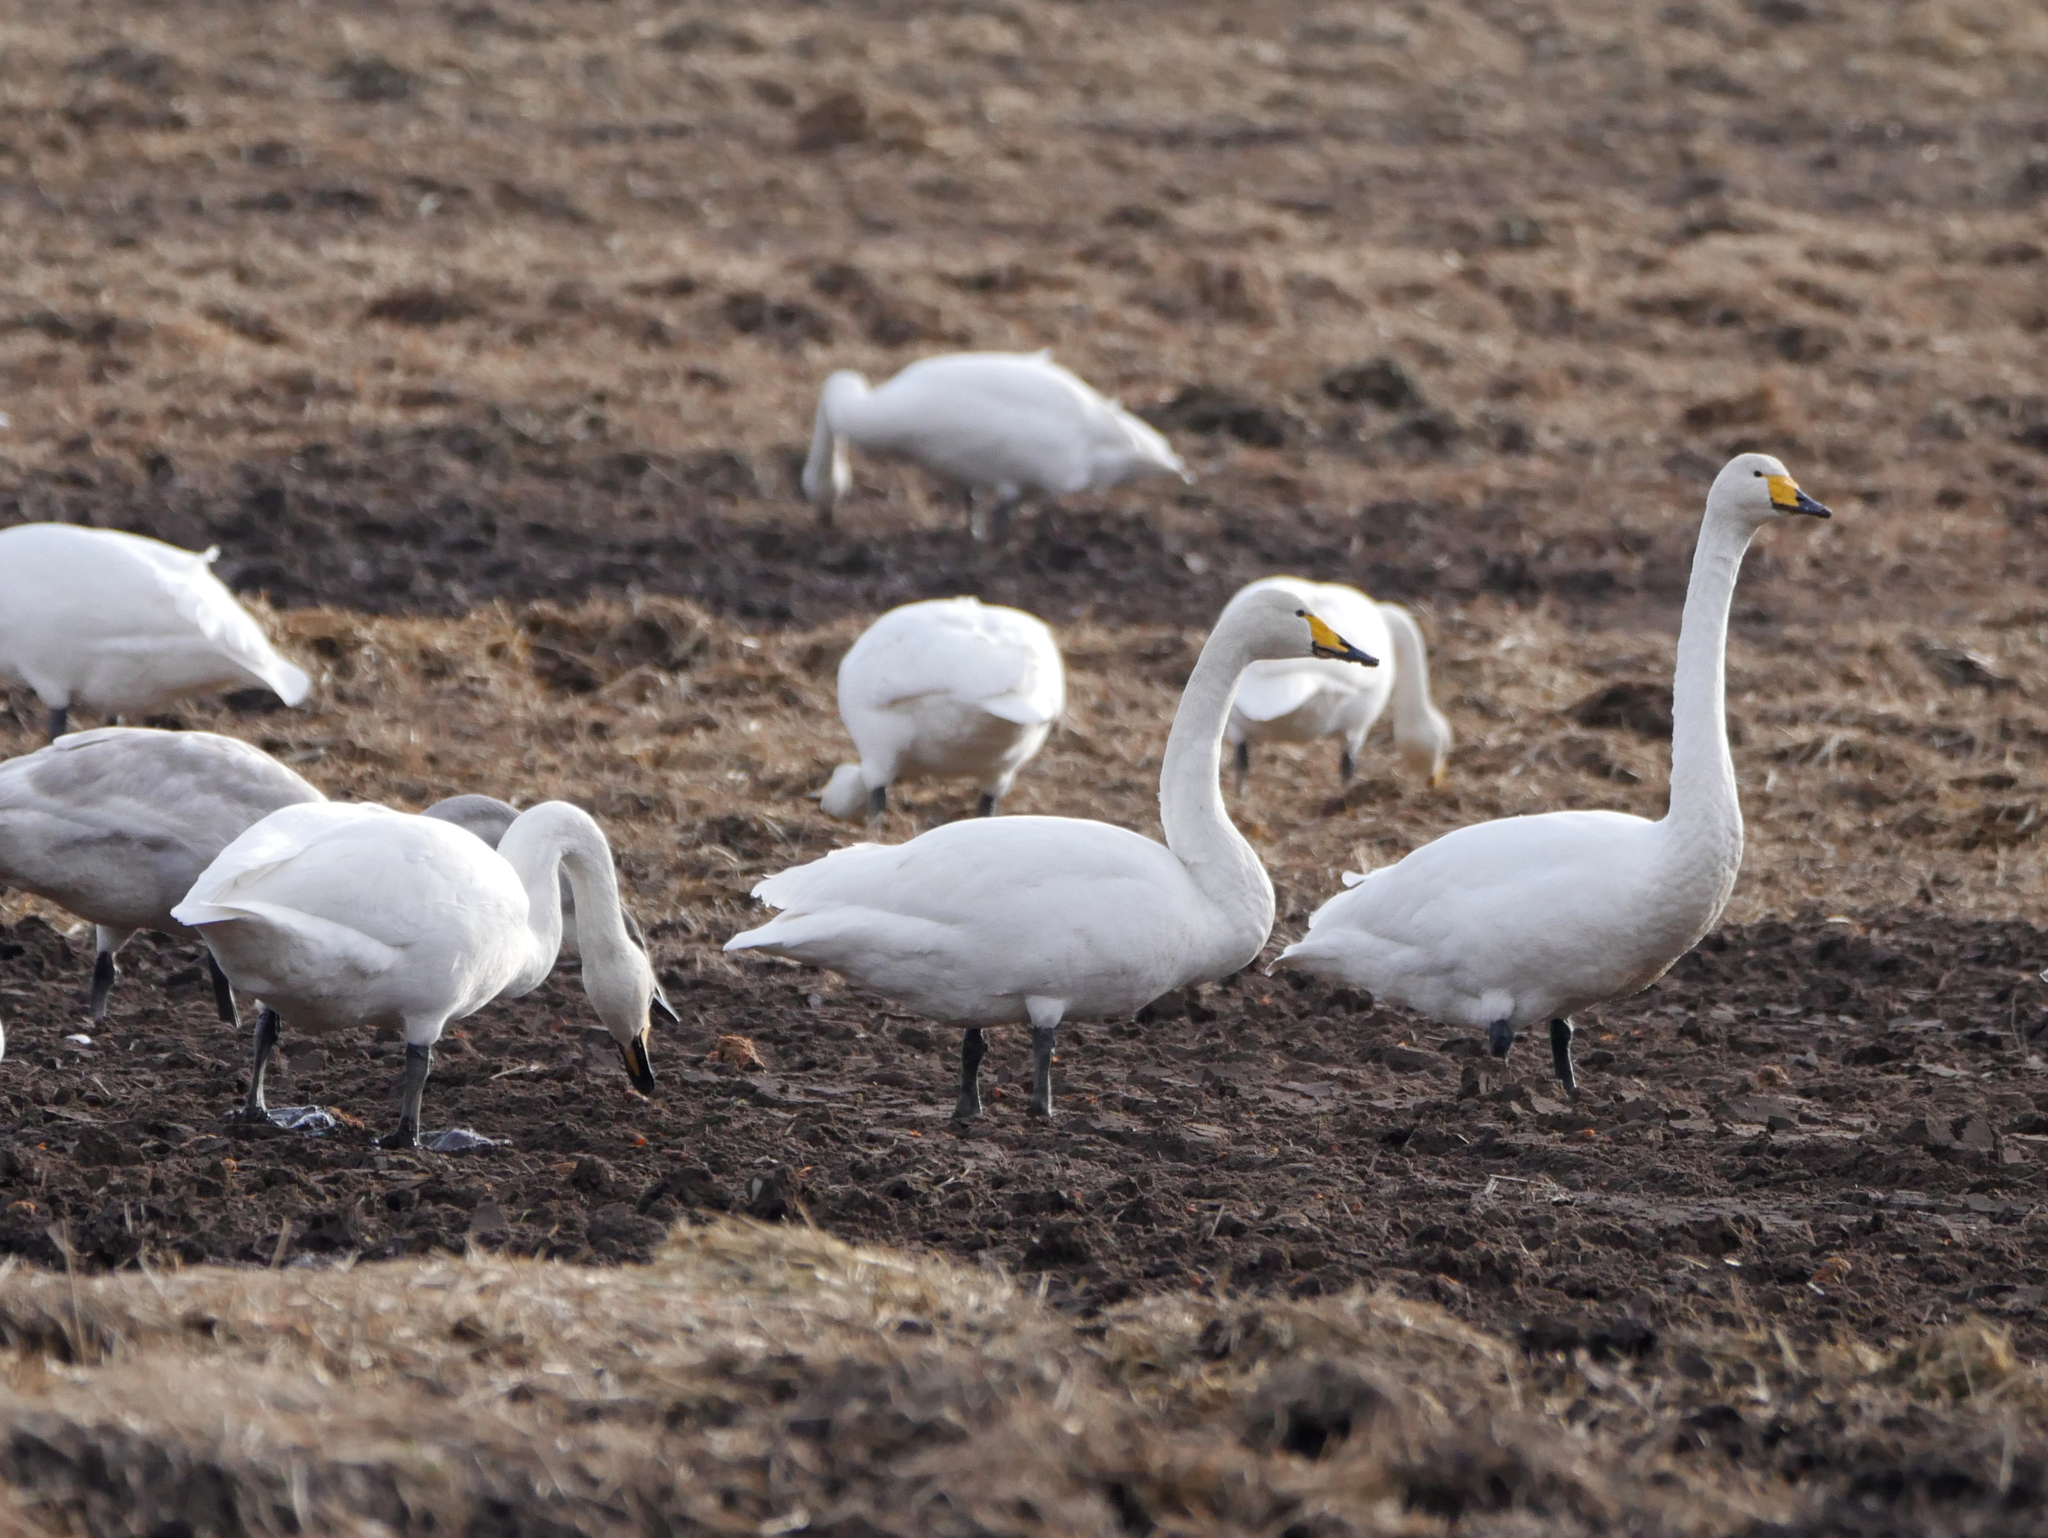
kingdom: Animalia
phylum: Chordata
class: Aves
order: Anseriformes
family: Anatidae
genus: Cygnus
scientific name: Cygnus cygnus
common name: Whooper swan
